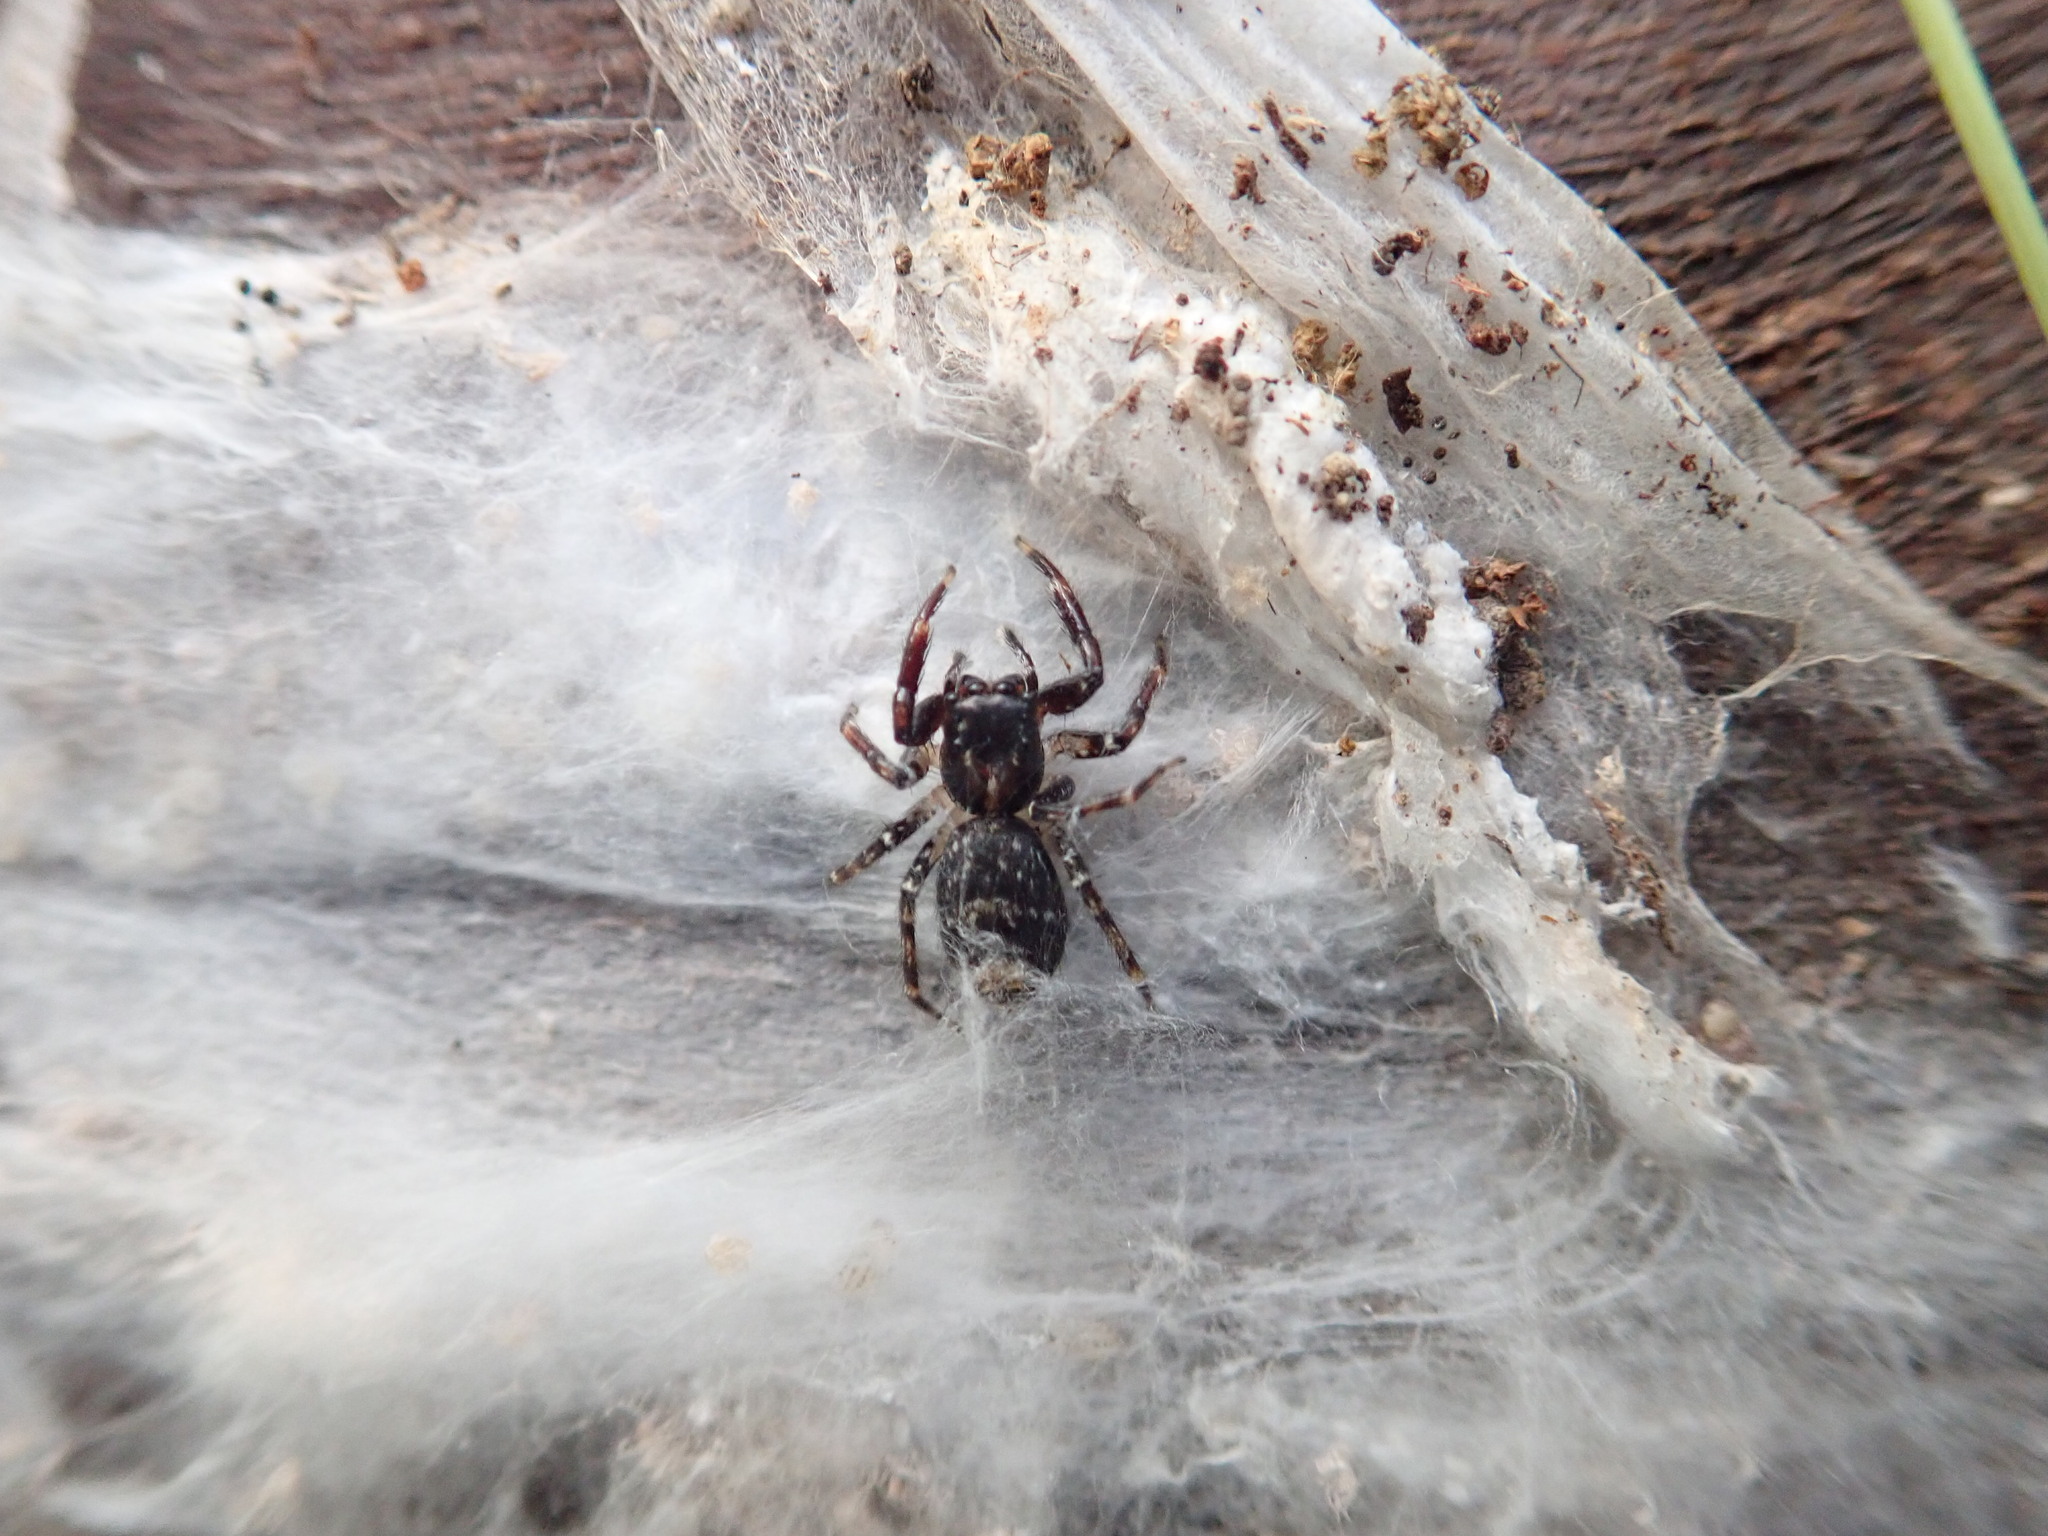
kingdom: Animalia
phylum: Arthropoda
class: Arachnida
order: Araneae
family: Salticidae
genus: Astia
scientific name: Astia
